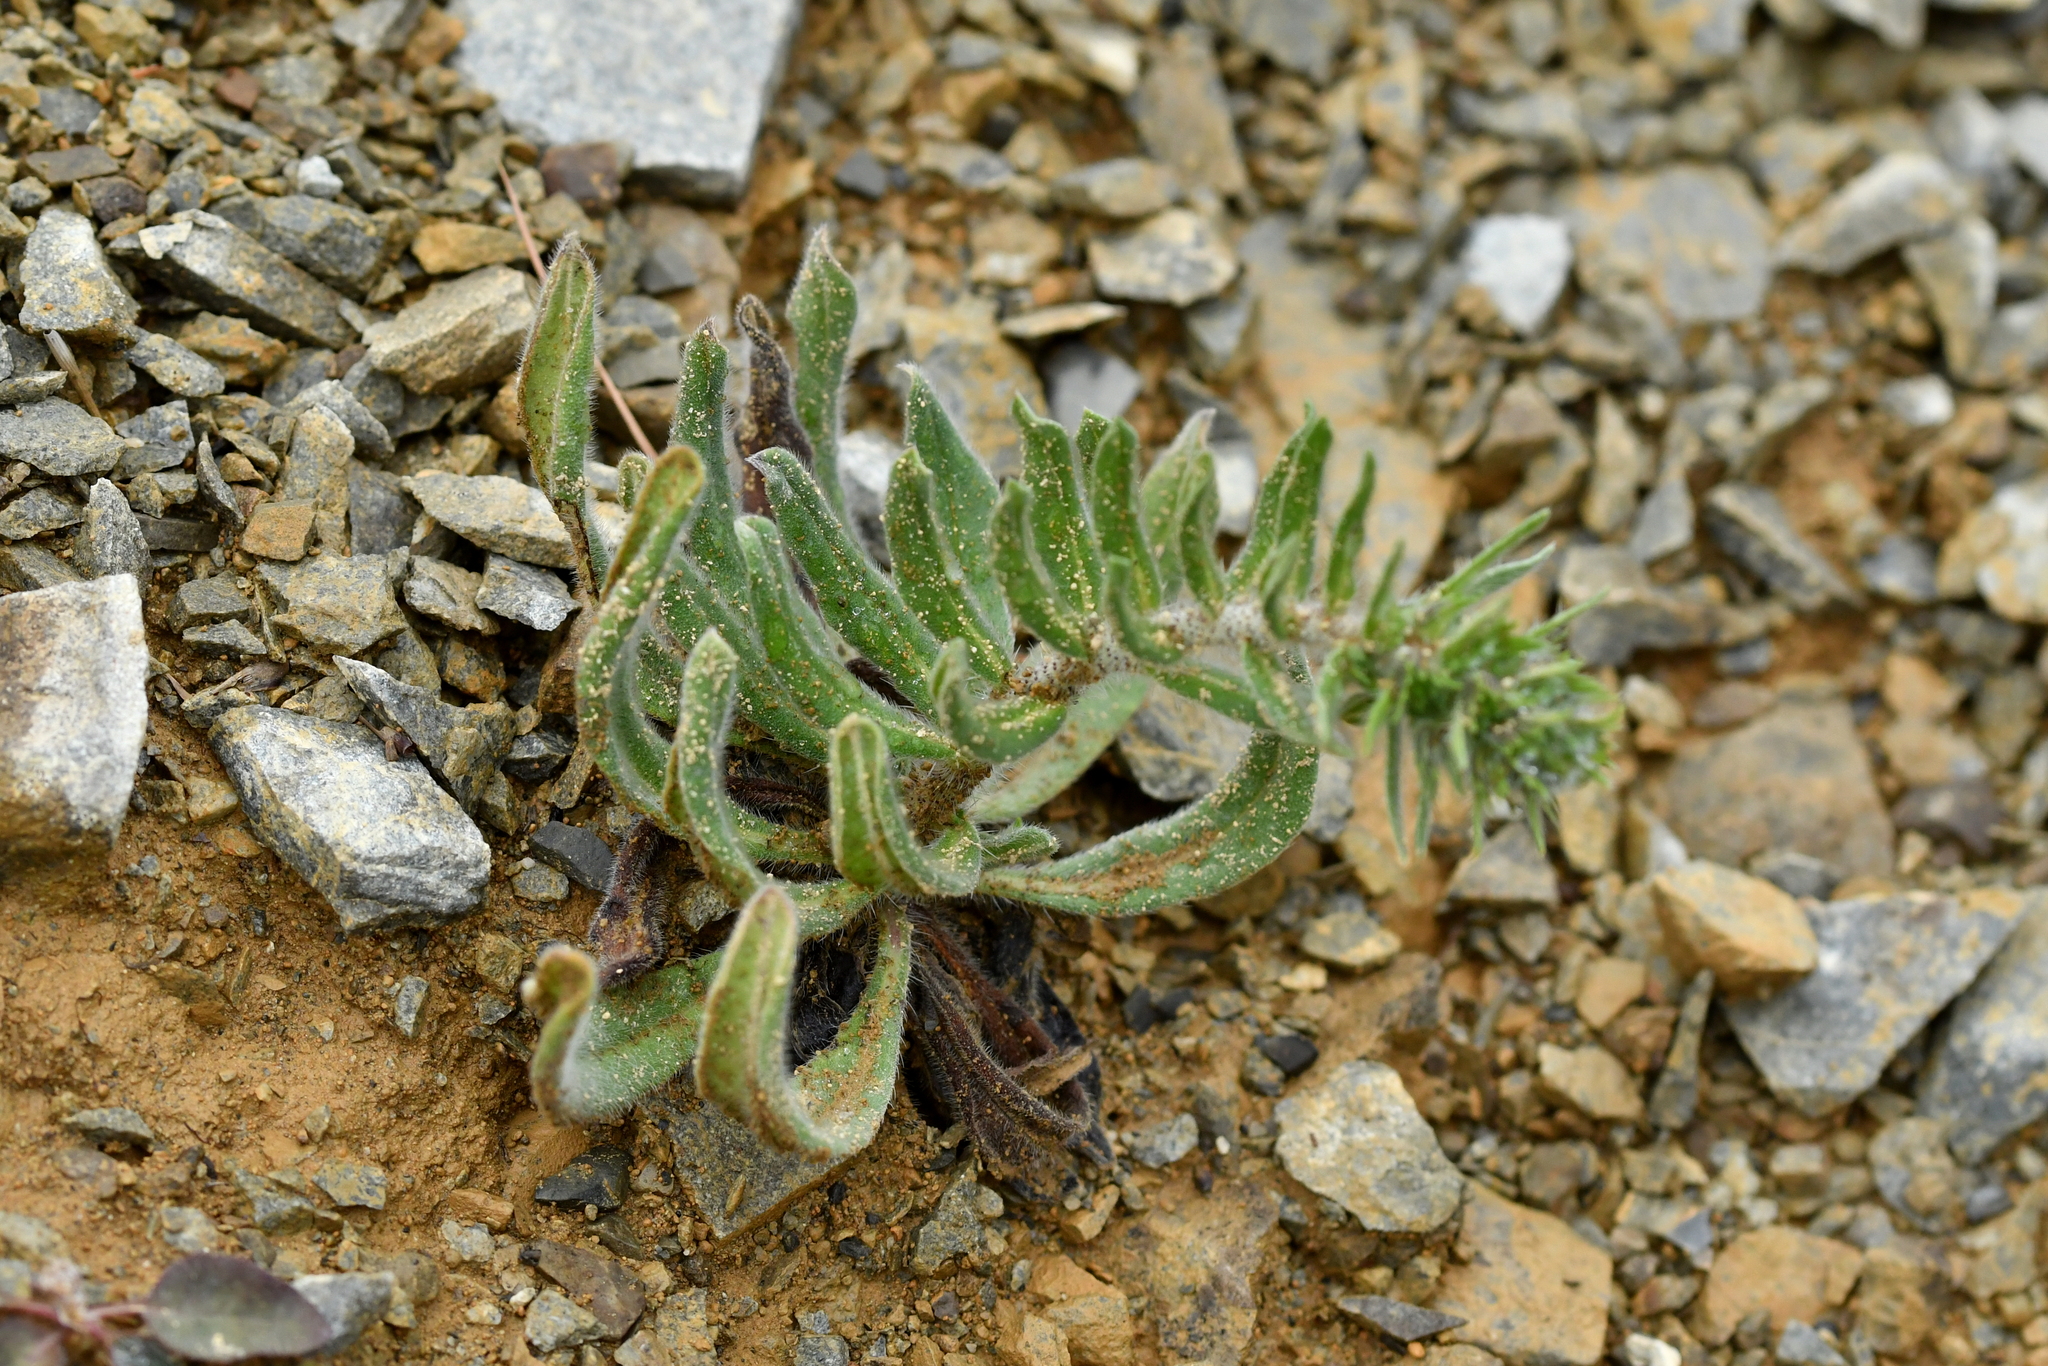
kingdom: Plantae
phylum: Tracheophyta
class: Magnoliopsida
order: Boraginales
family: Boraginaceae
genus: Echium
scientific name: Echium vulgare
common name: Common viper's bugloss
